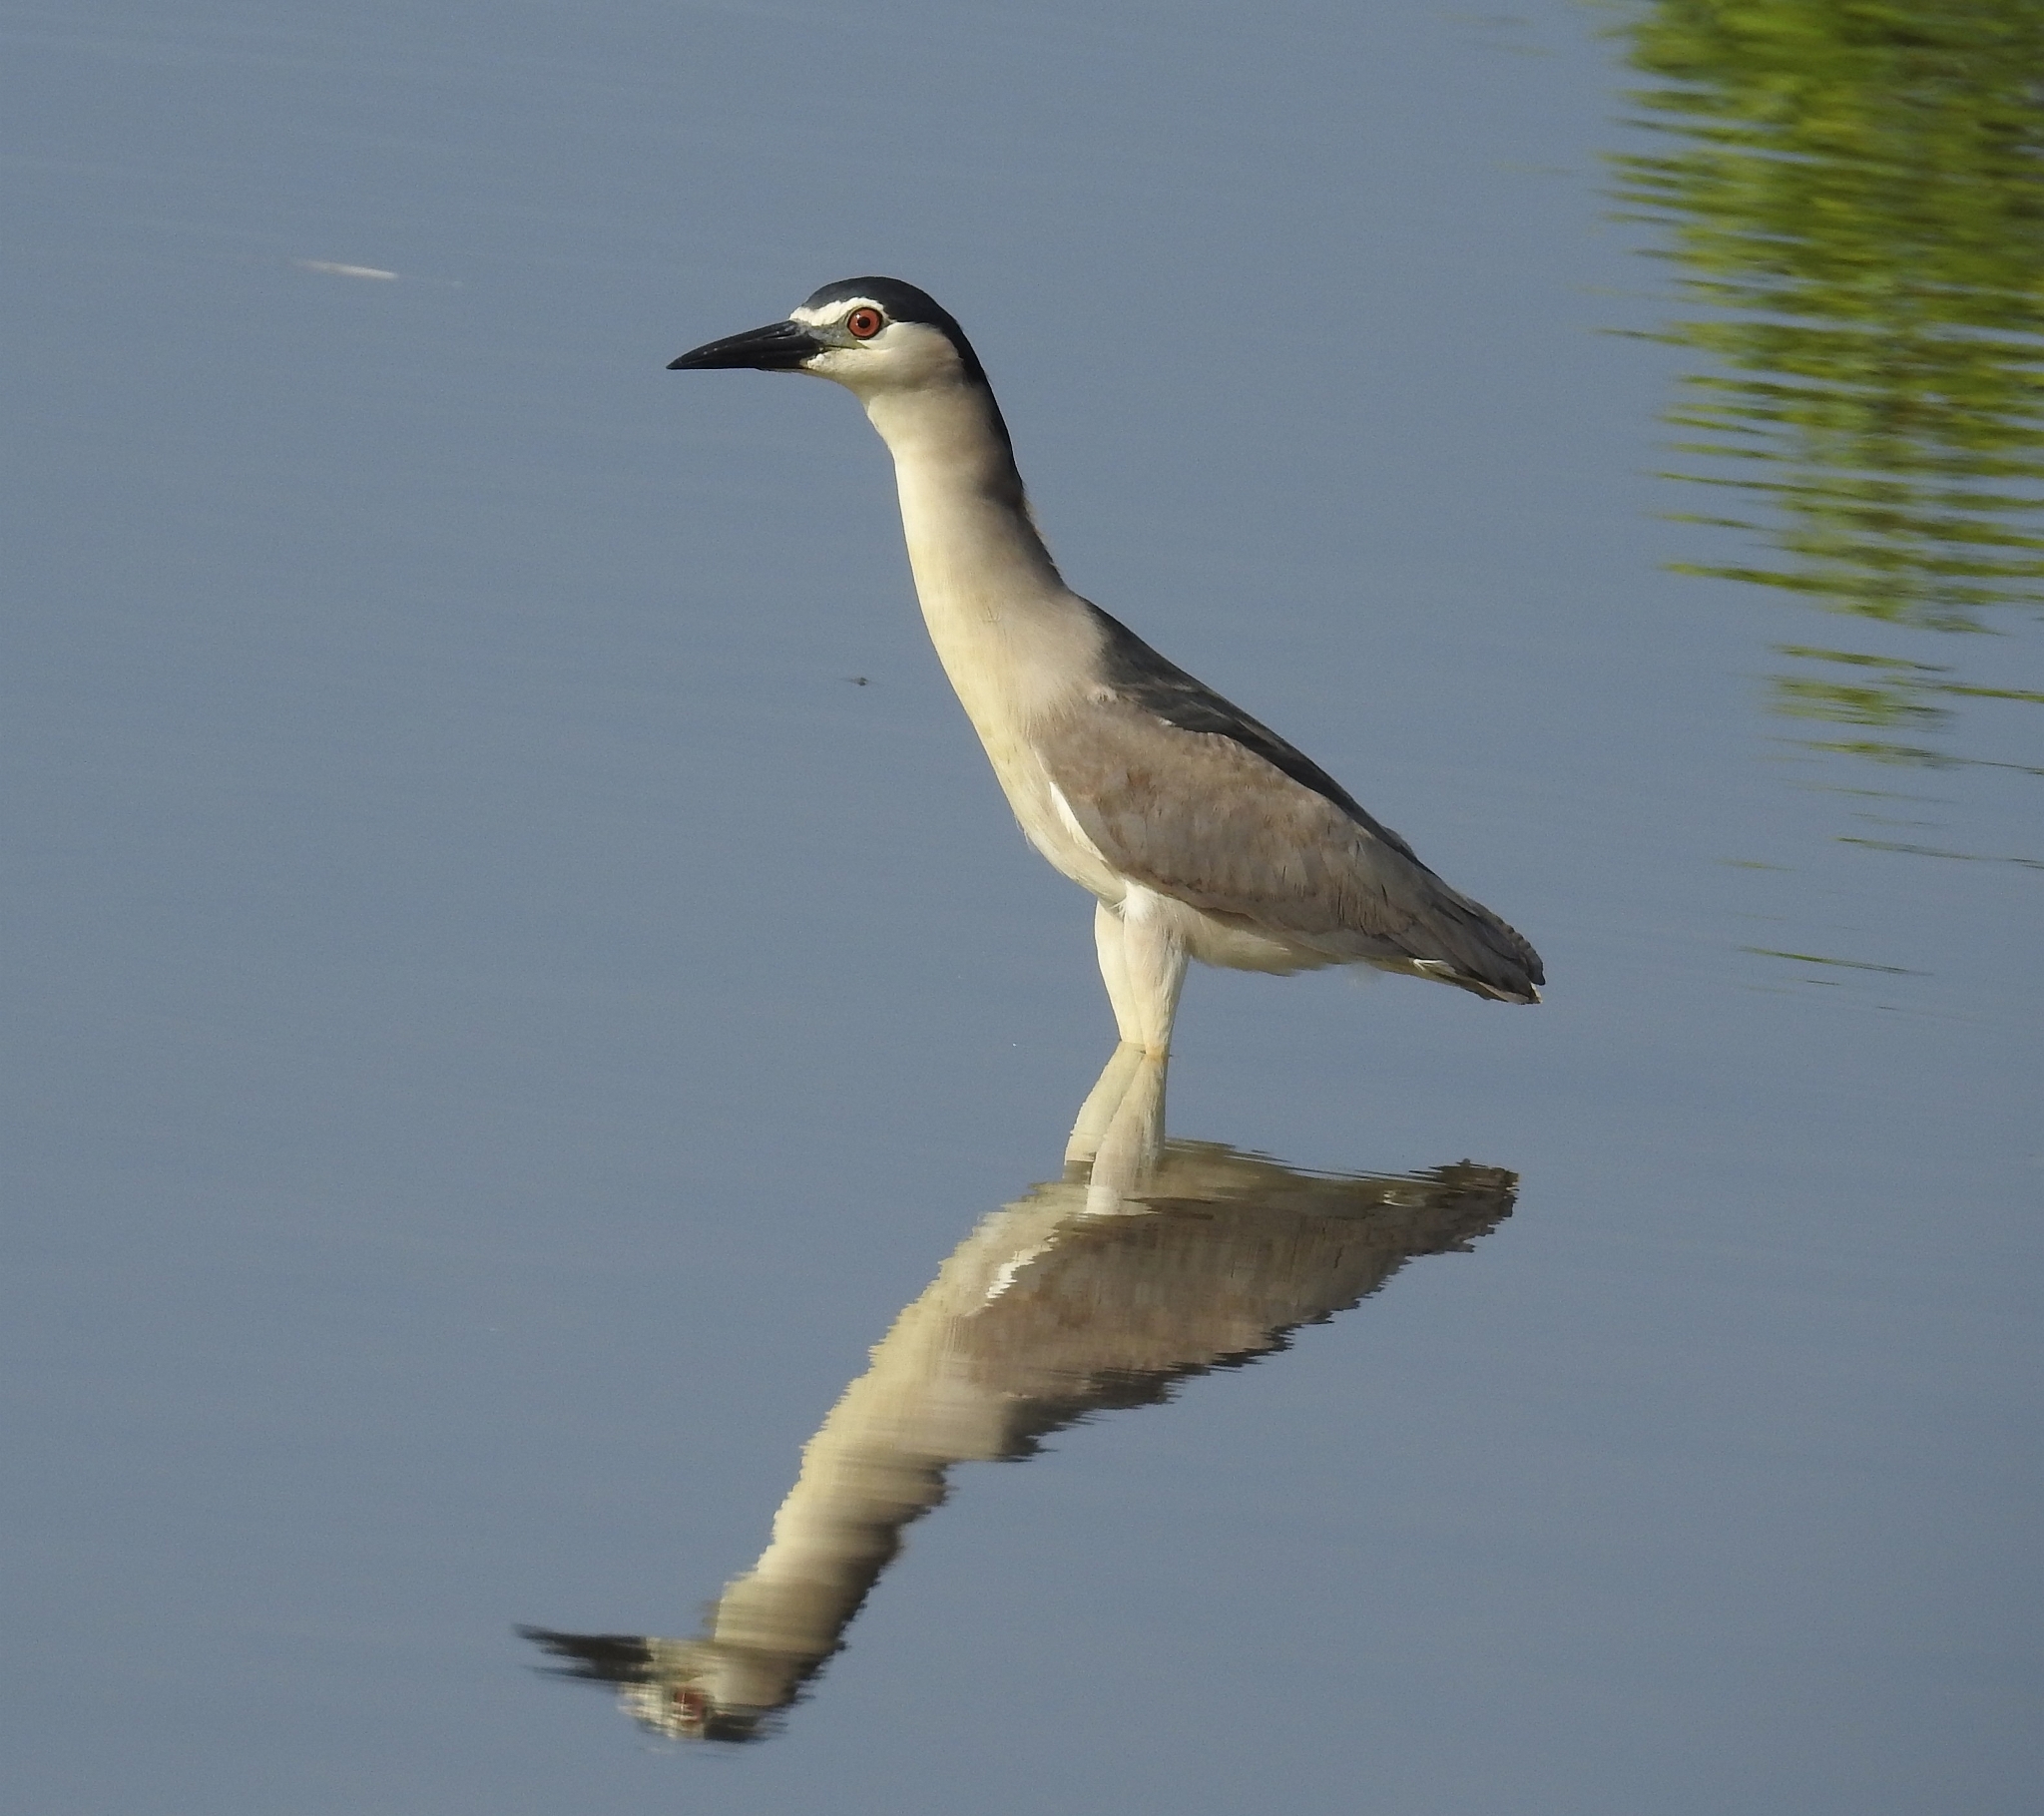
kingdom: Animalia
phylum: Chordata
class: Aves
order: Pelecaniformes
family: Ardeidae
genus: Nycticorax
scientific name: Nycticorax nycticorax
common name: Black-crowned night heron
